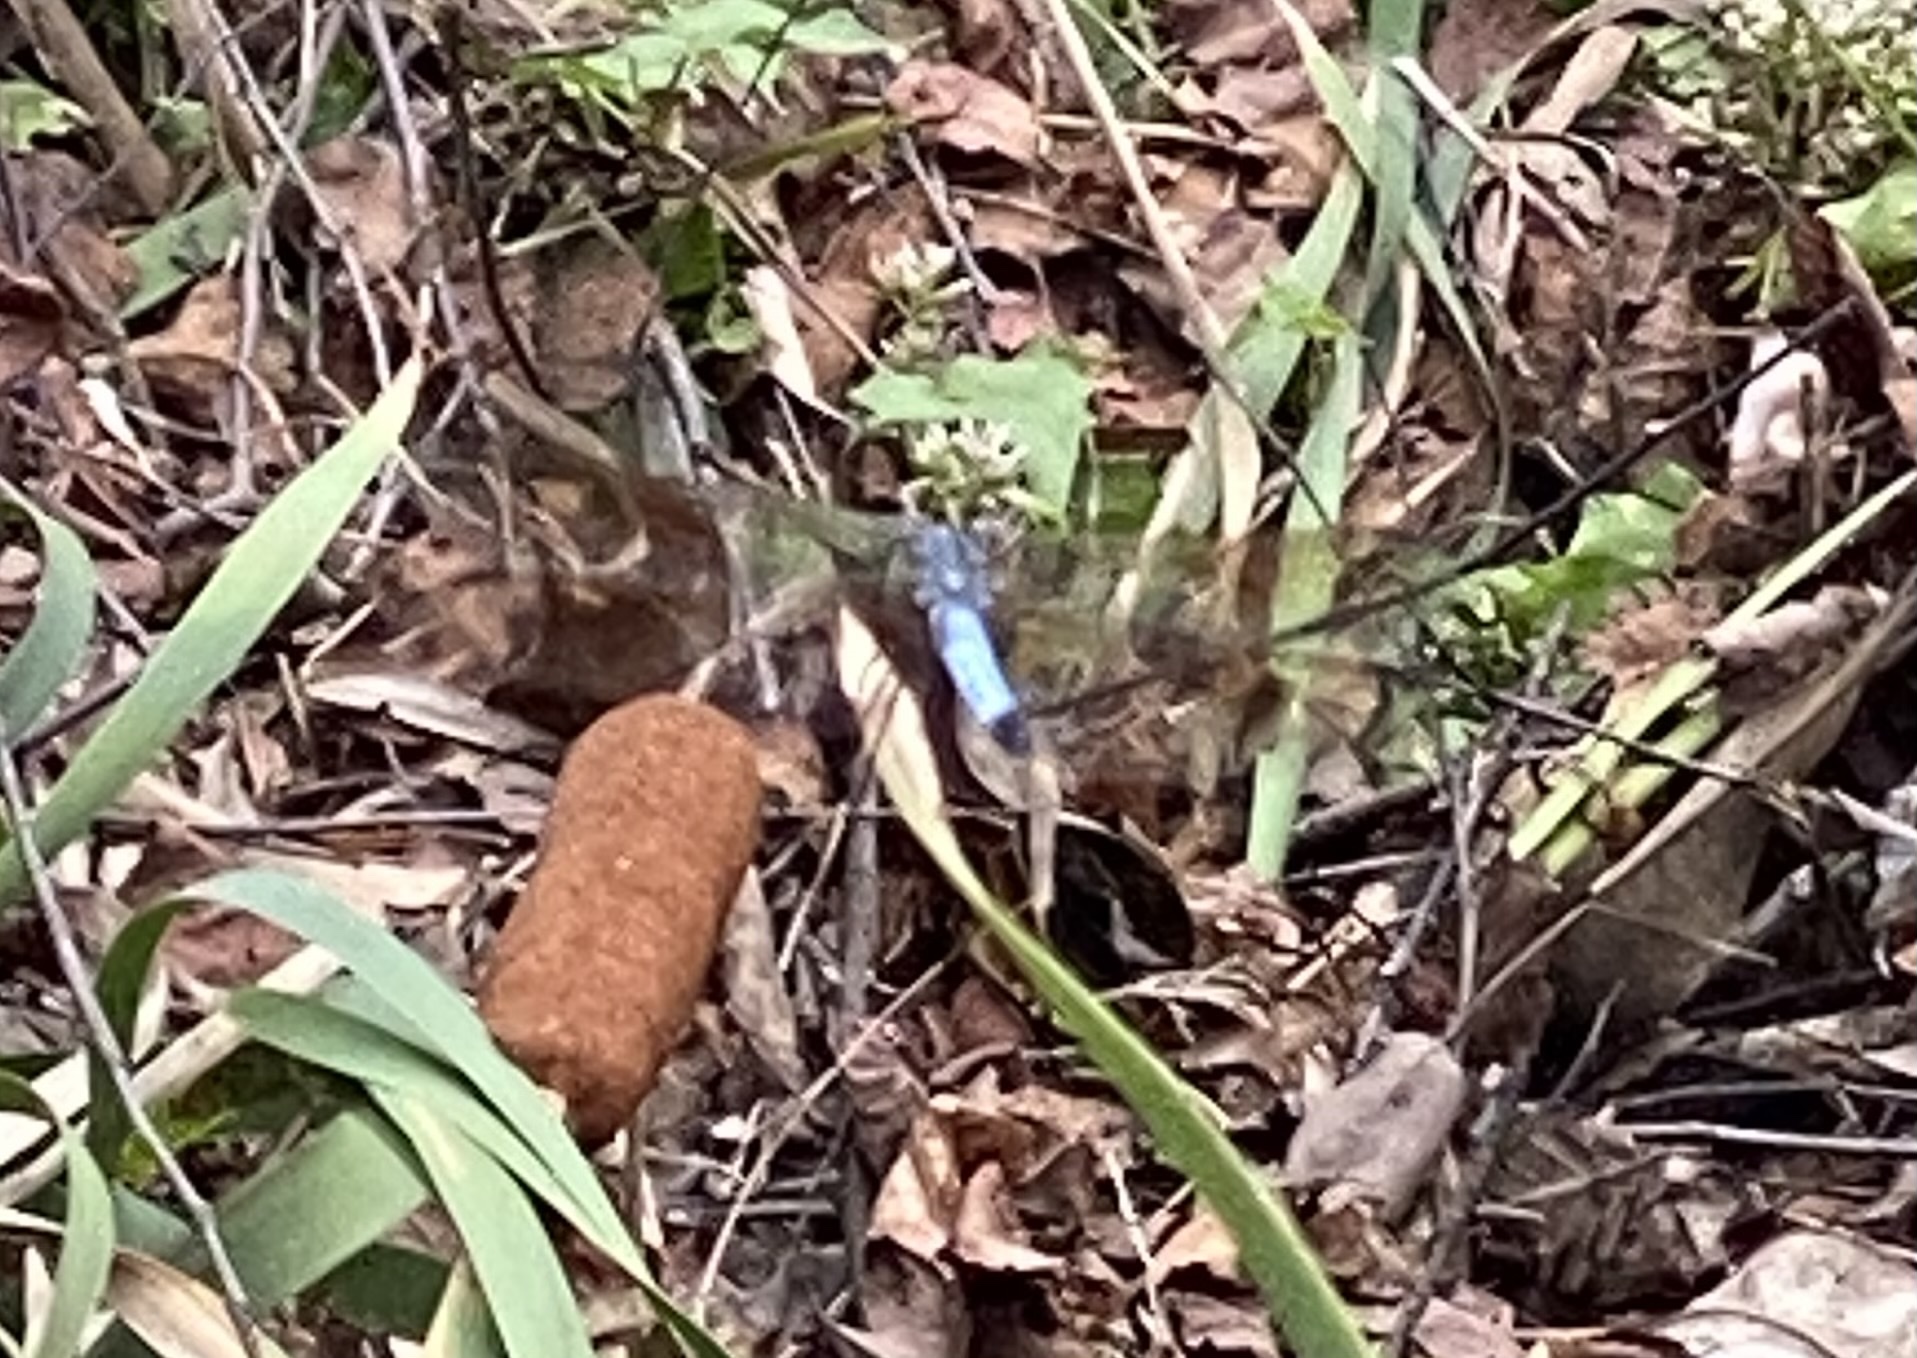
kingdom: Animalia
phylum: Arthropoda
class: Insecta
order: Odonata
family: Libellulidae
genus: Pachydiplax
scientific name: Pachydiplax longipennis
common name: Blue dasher
